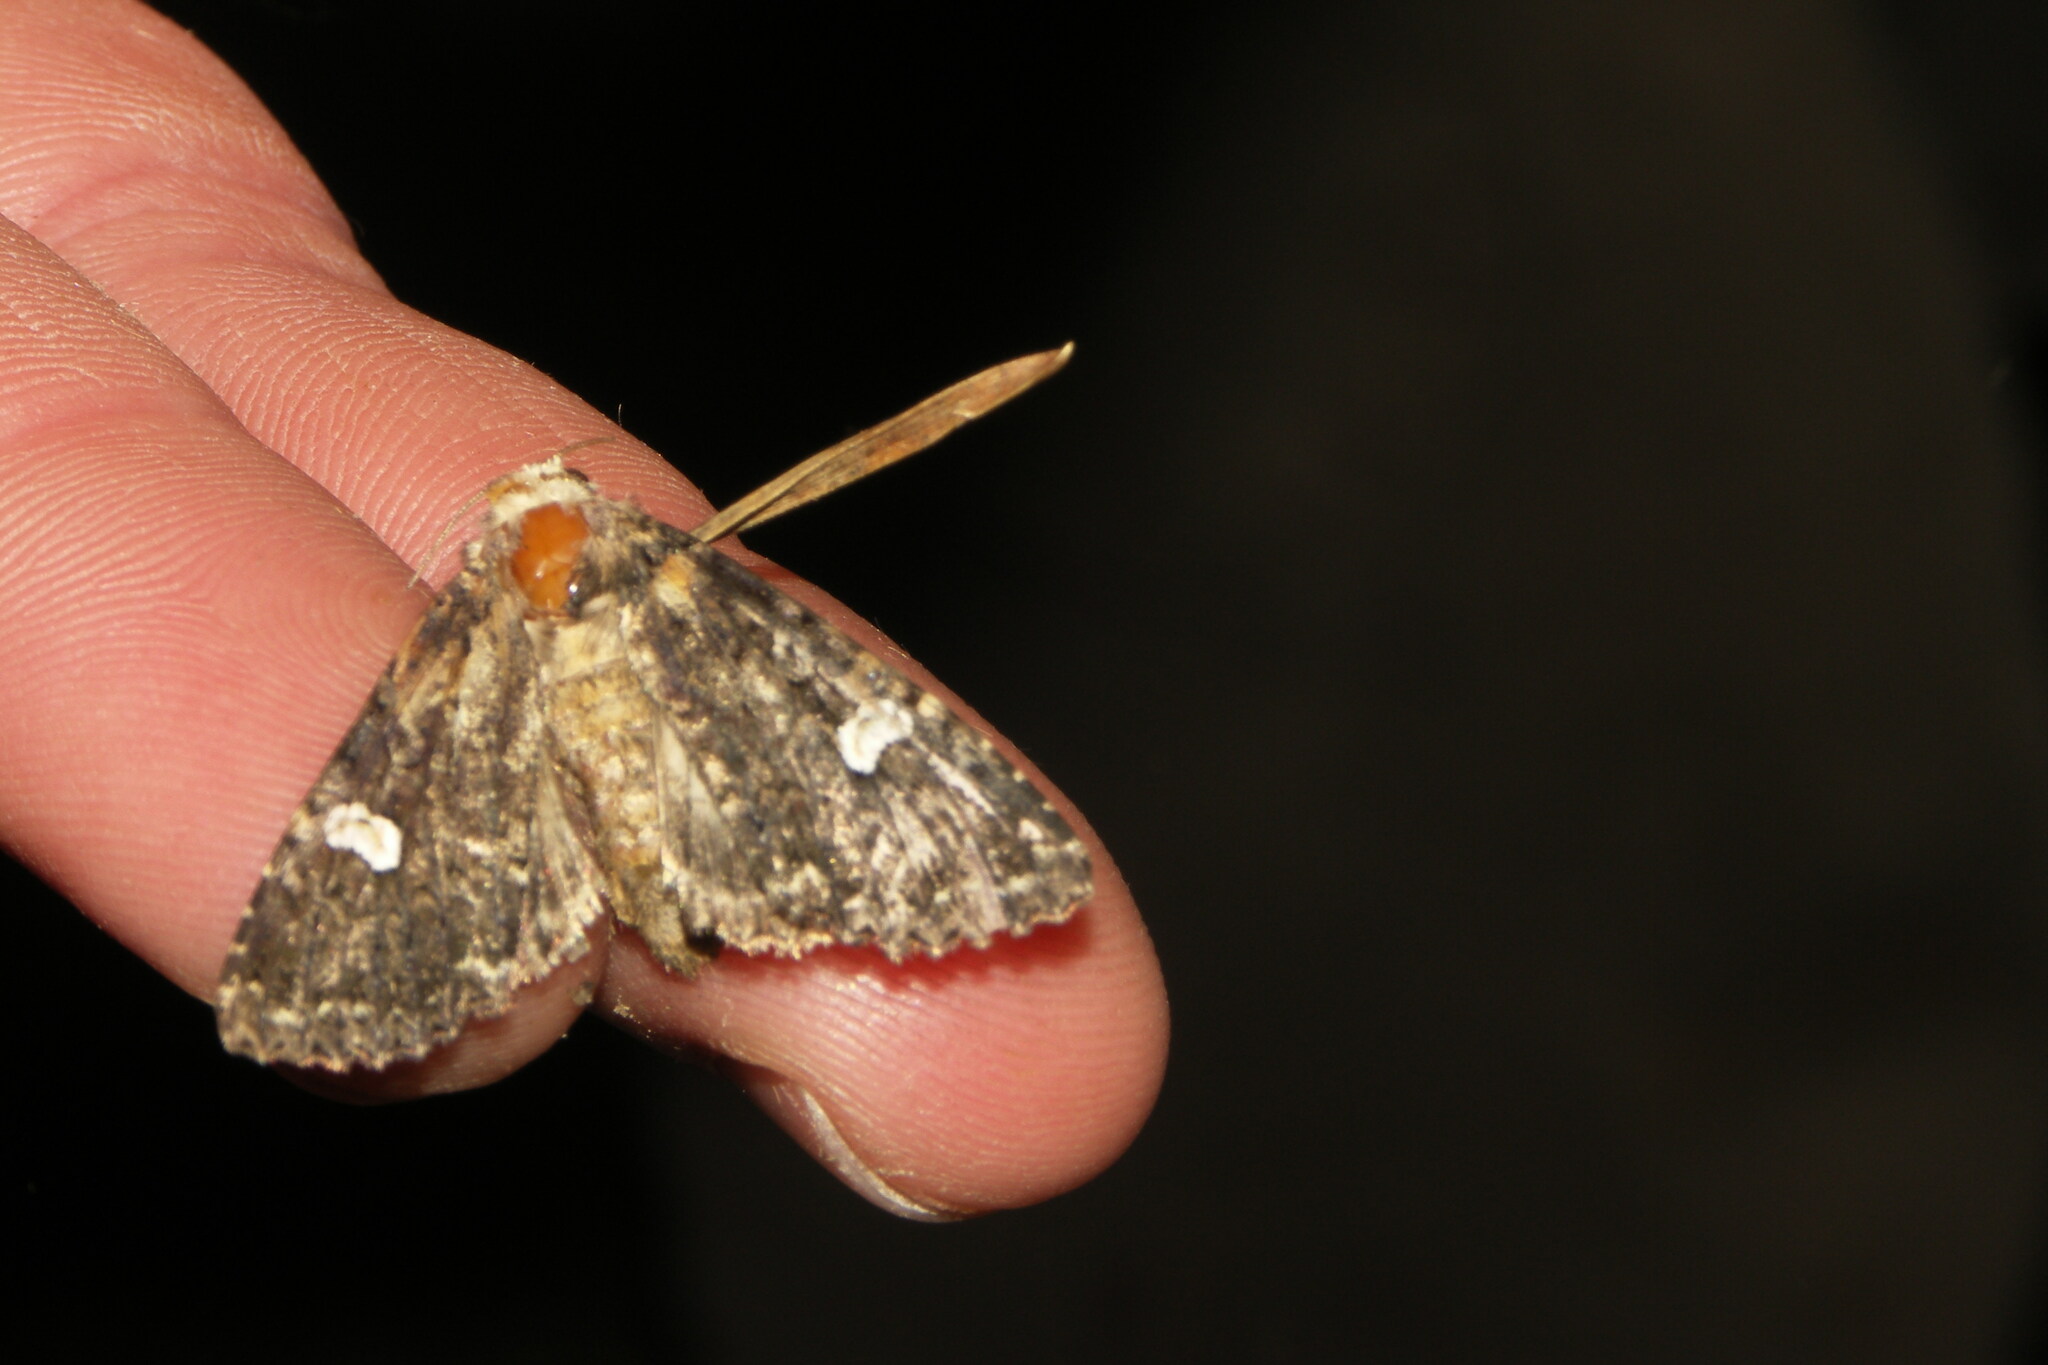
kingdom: Animalia
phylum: Arthropoda
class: Insecta
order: Lepidoptera
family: Noctuidae
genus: Melanchra
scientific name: Melanchra persicariae
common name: Dot moth
